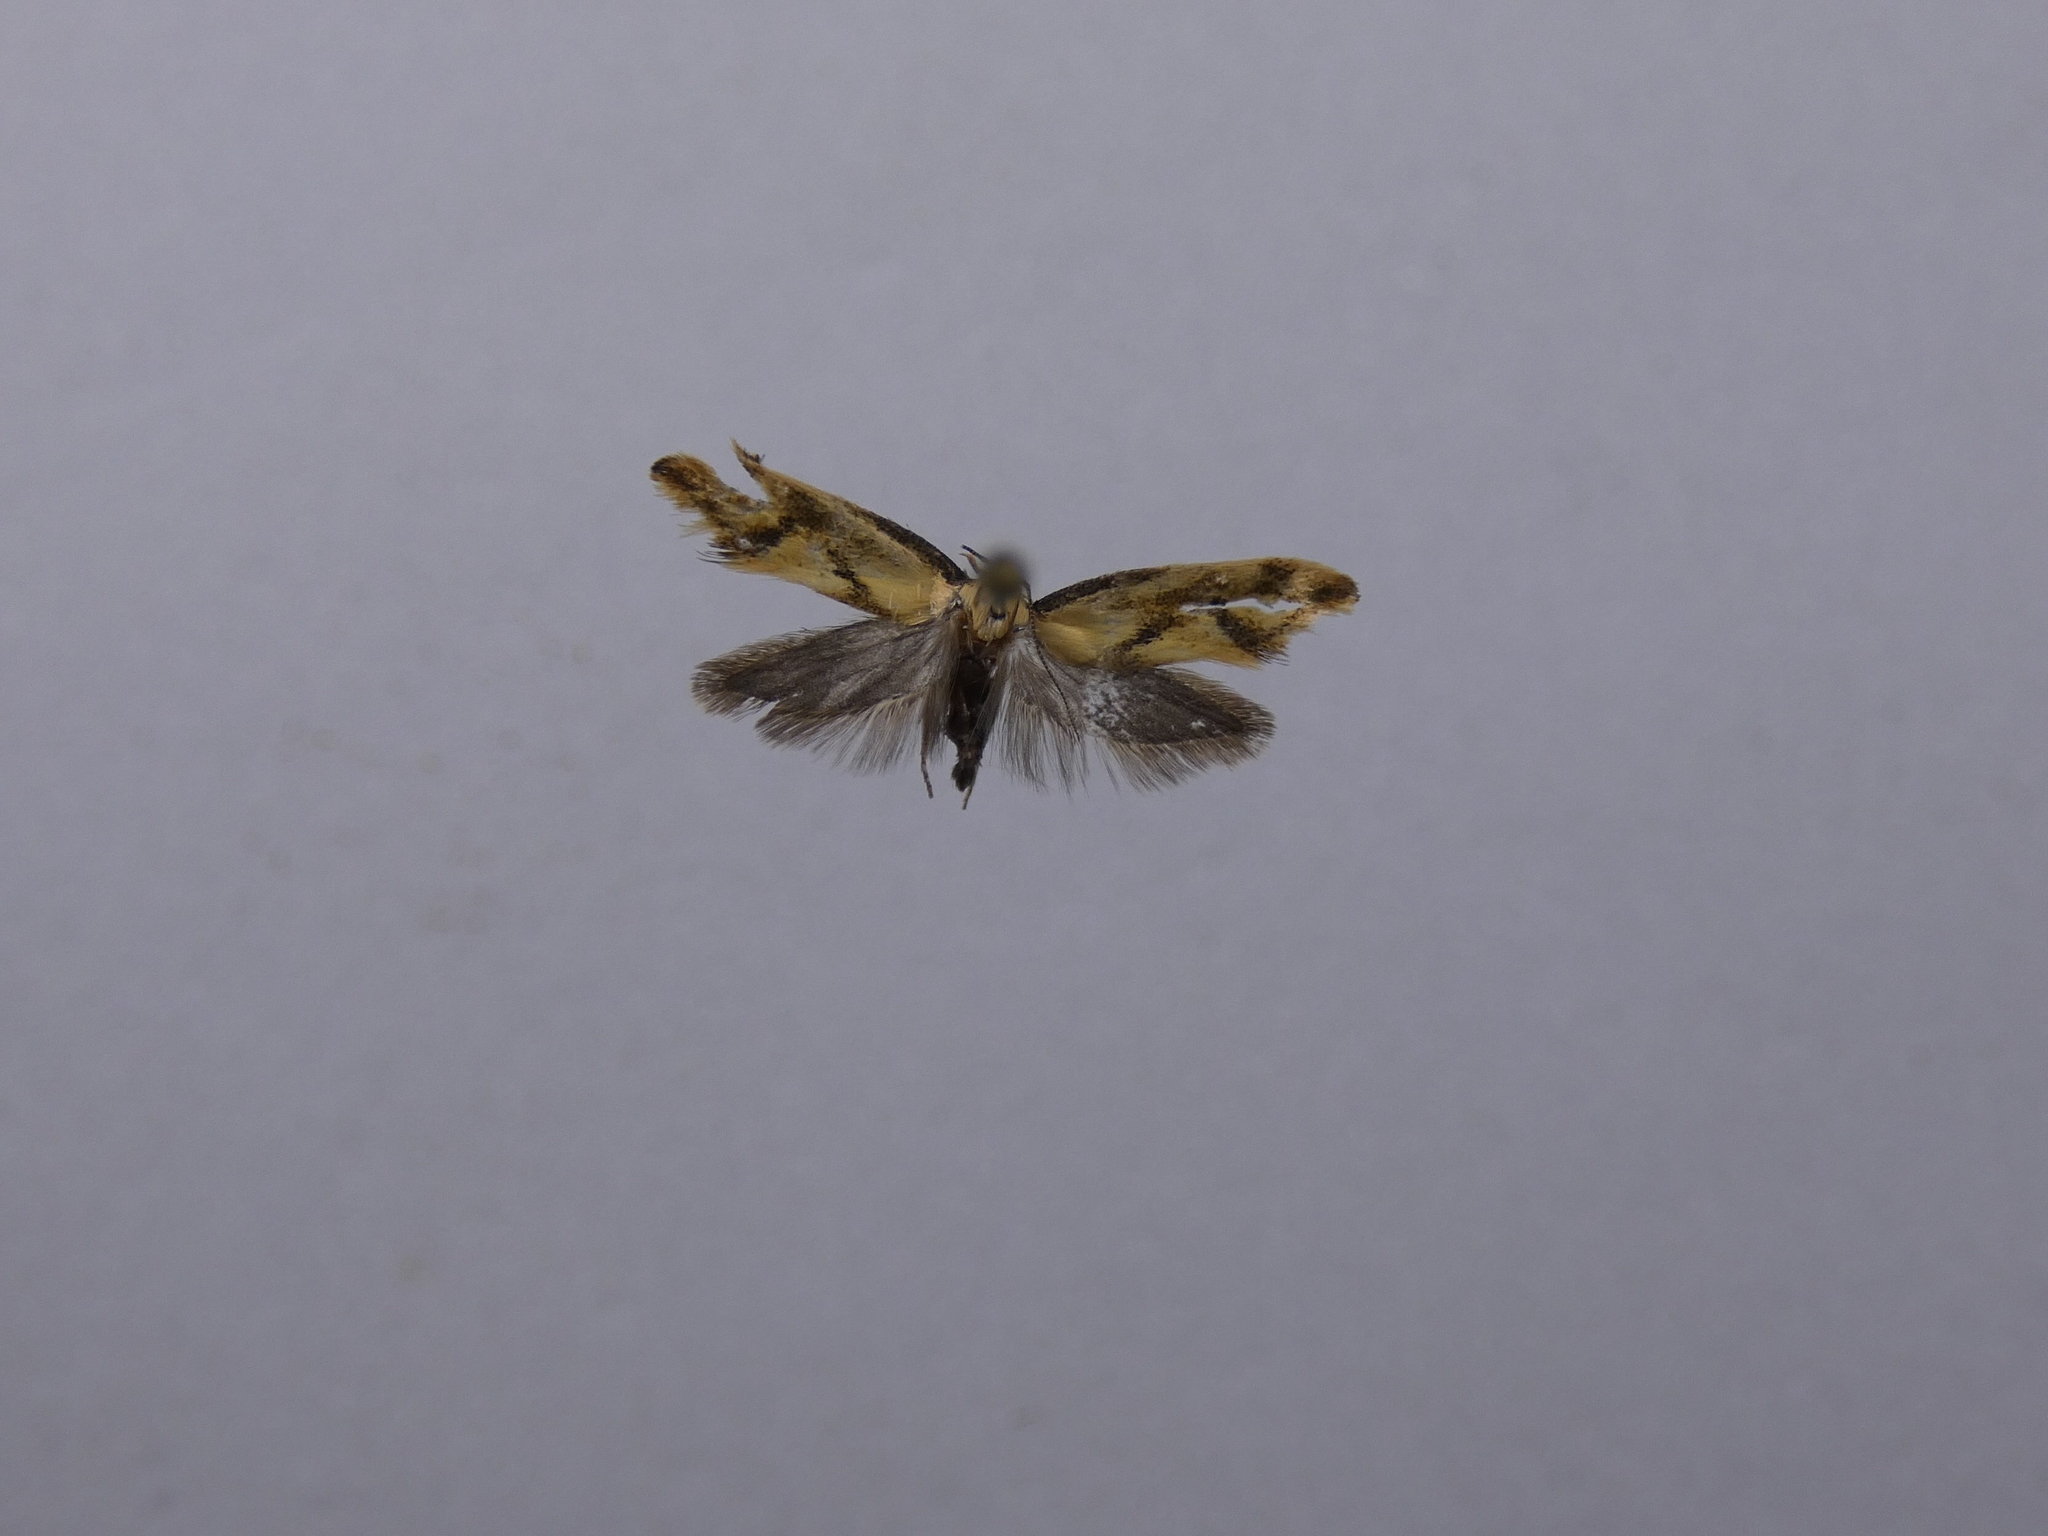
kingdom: Animalia
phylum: Arthropoda
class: Insecta
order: Lepidoptera
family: Oecophoridae
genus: Tingena
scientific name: Tingena actinias
